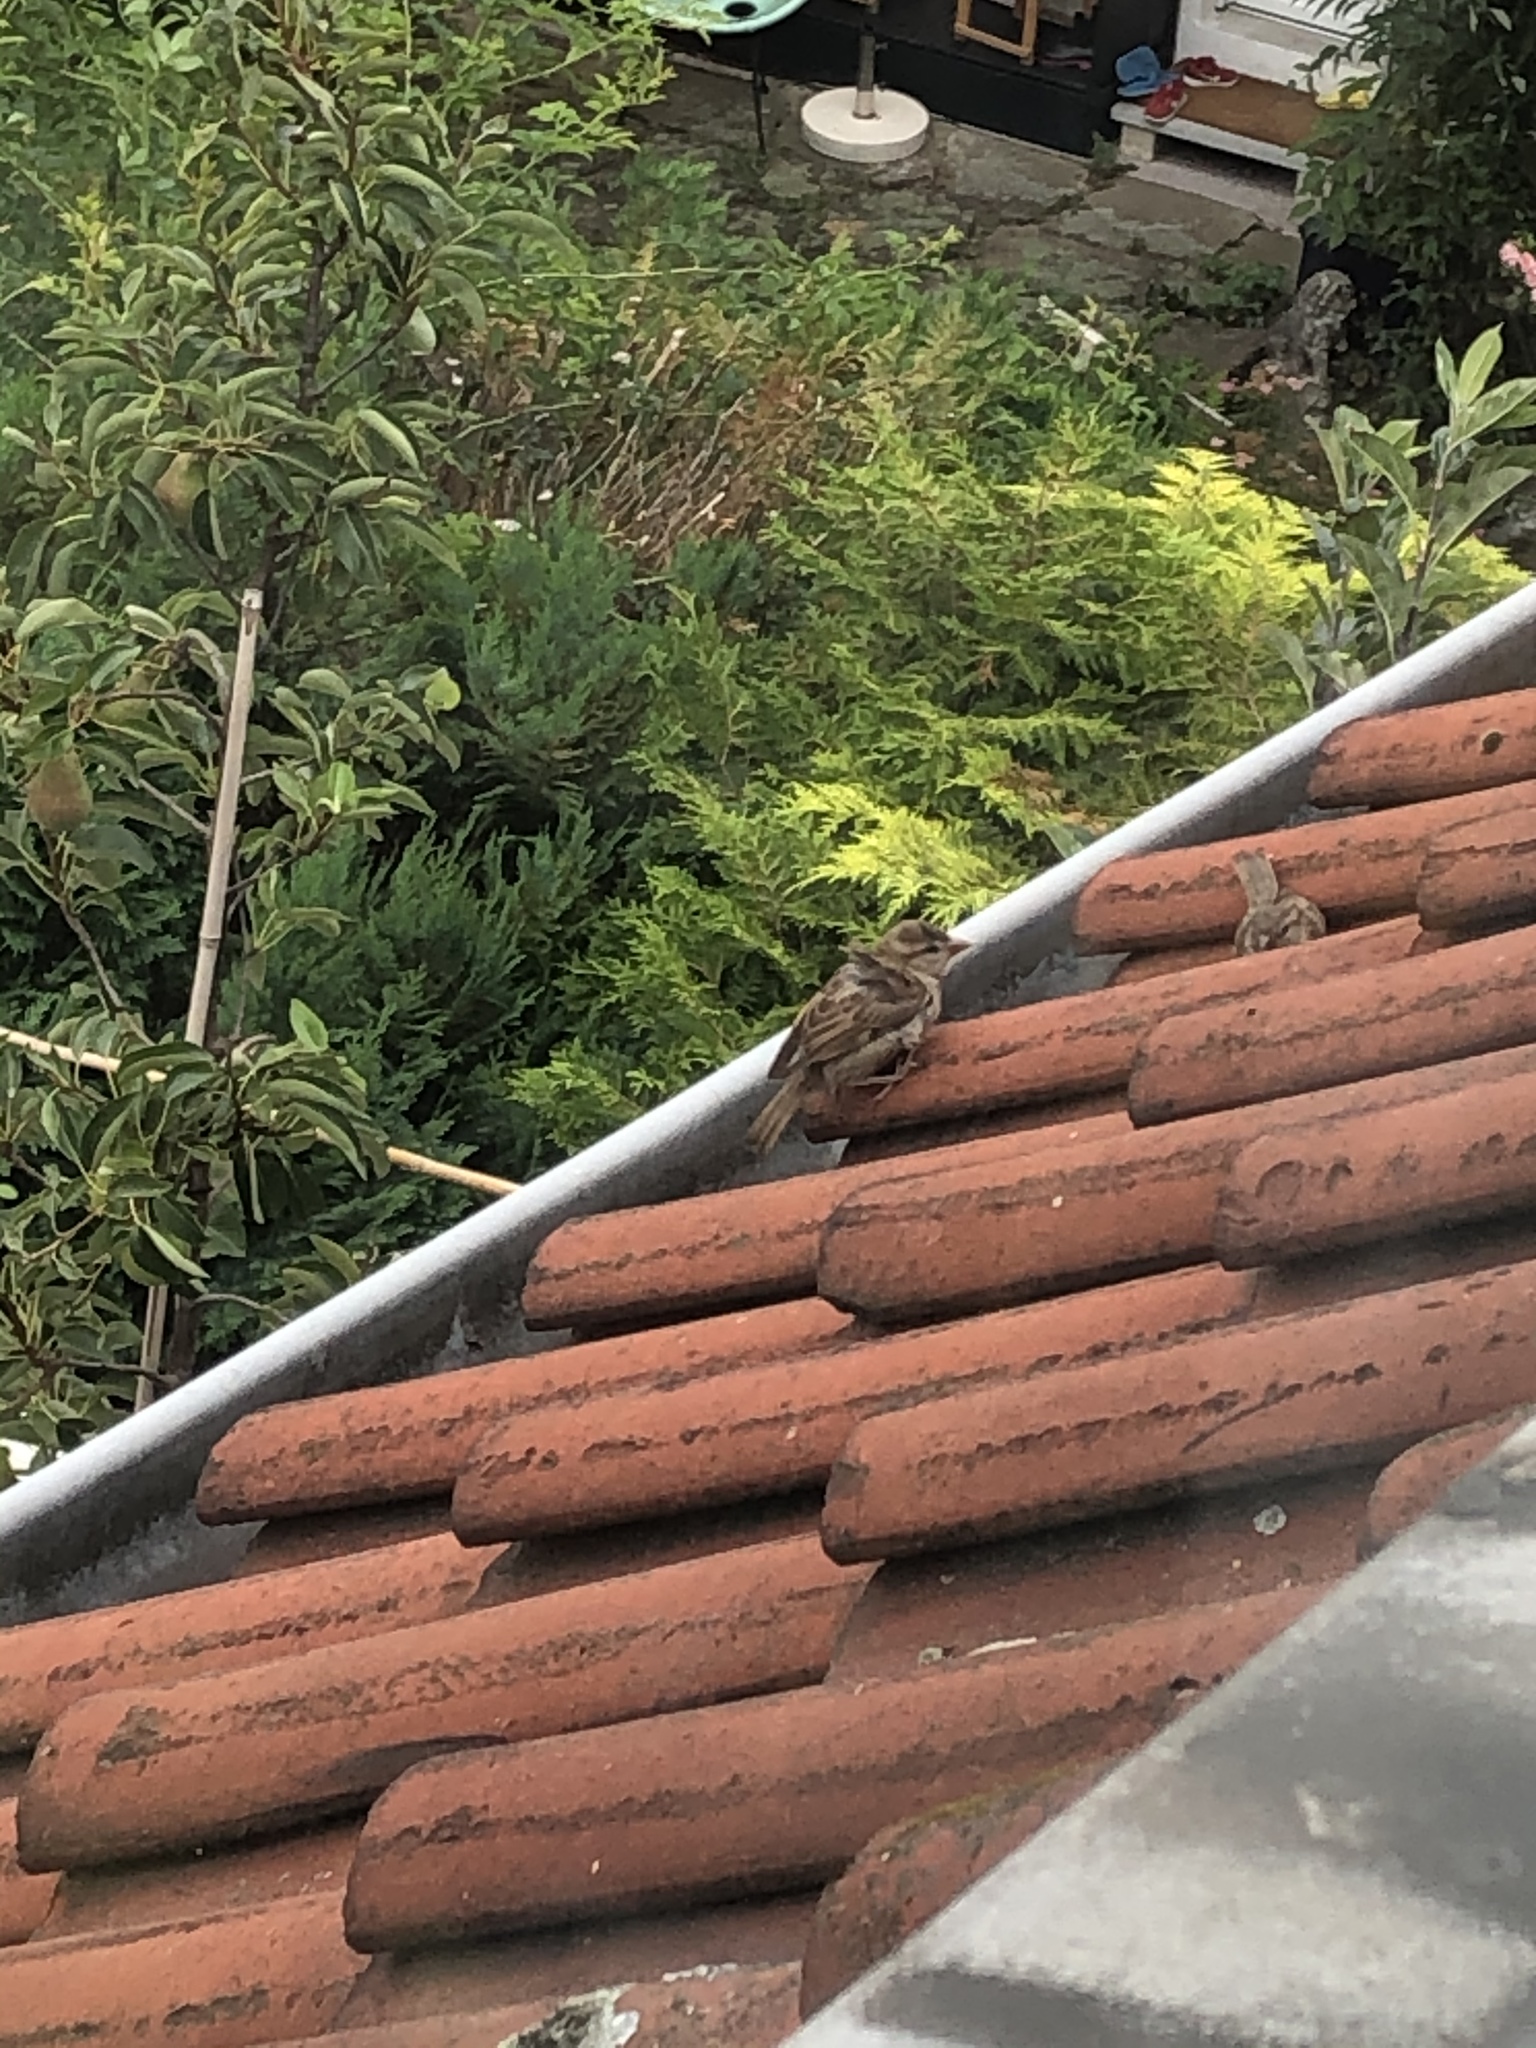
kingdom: Animalia
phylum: Chordata
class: Aves
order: Passeriformes
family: Passeridae
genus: Passer
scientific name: Passer domesticus
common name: House sparrow
